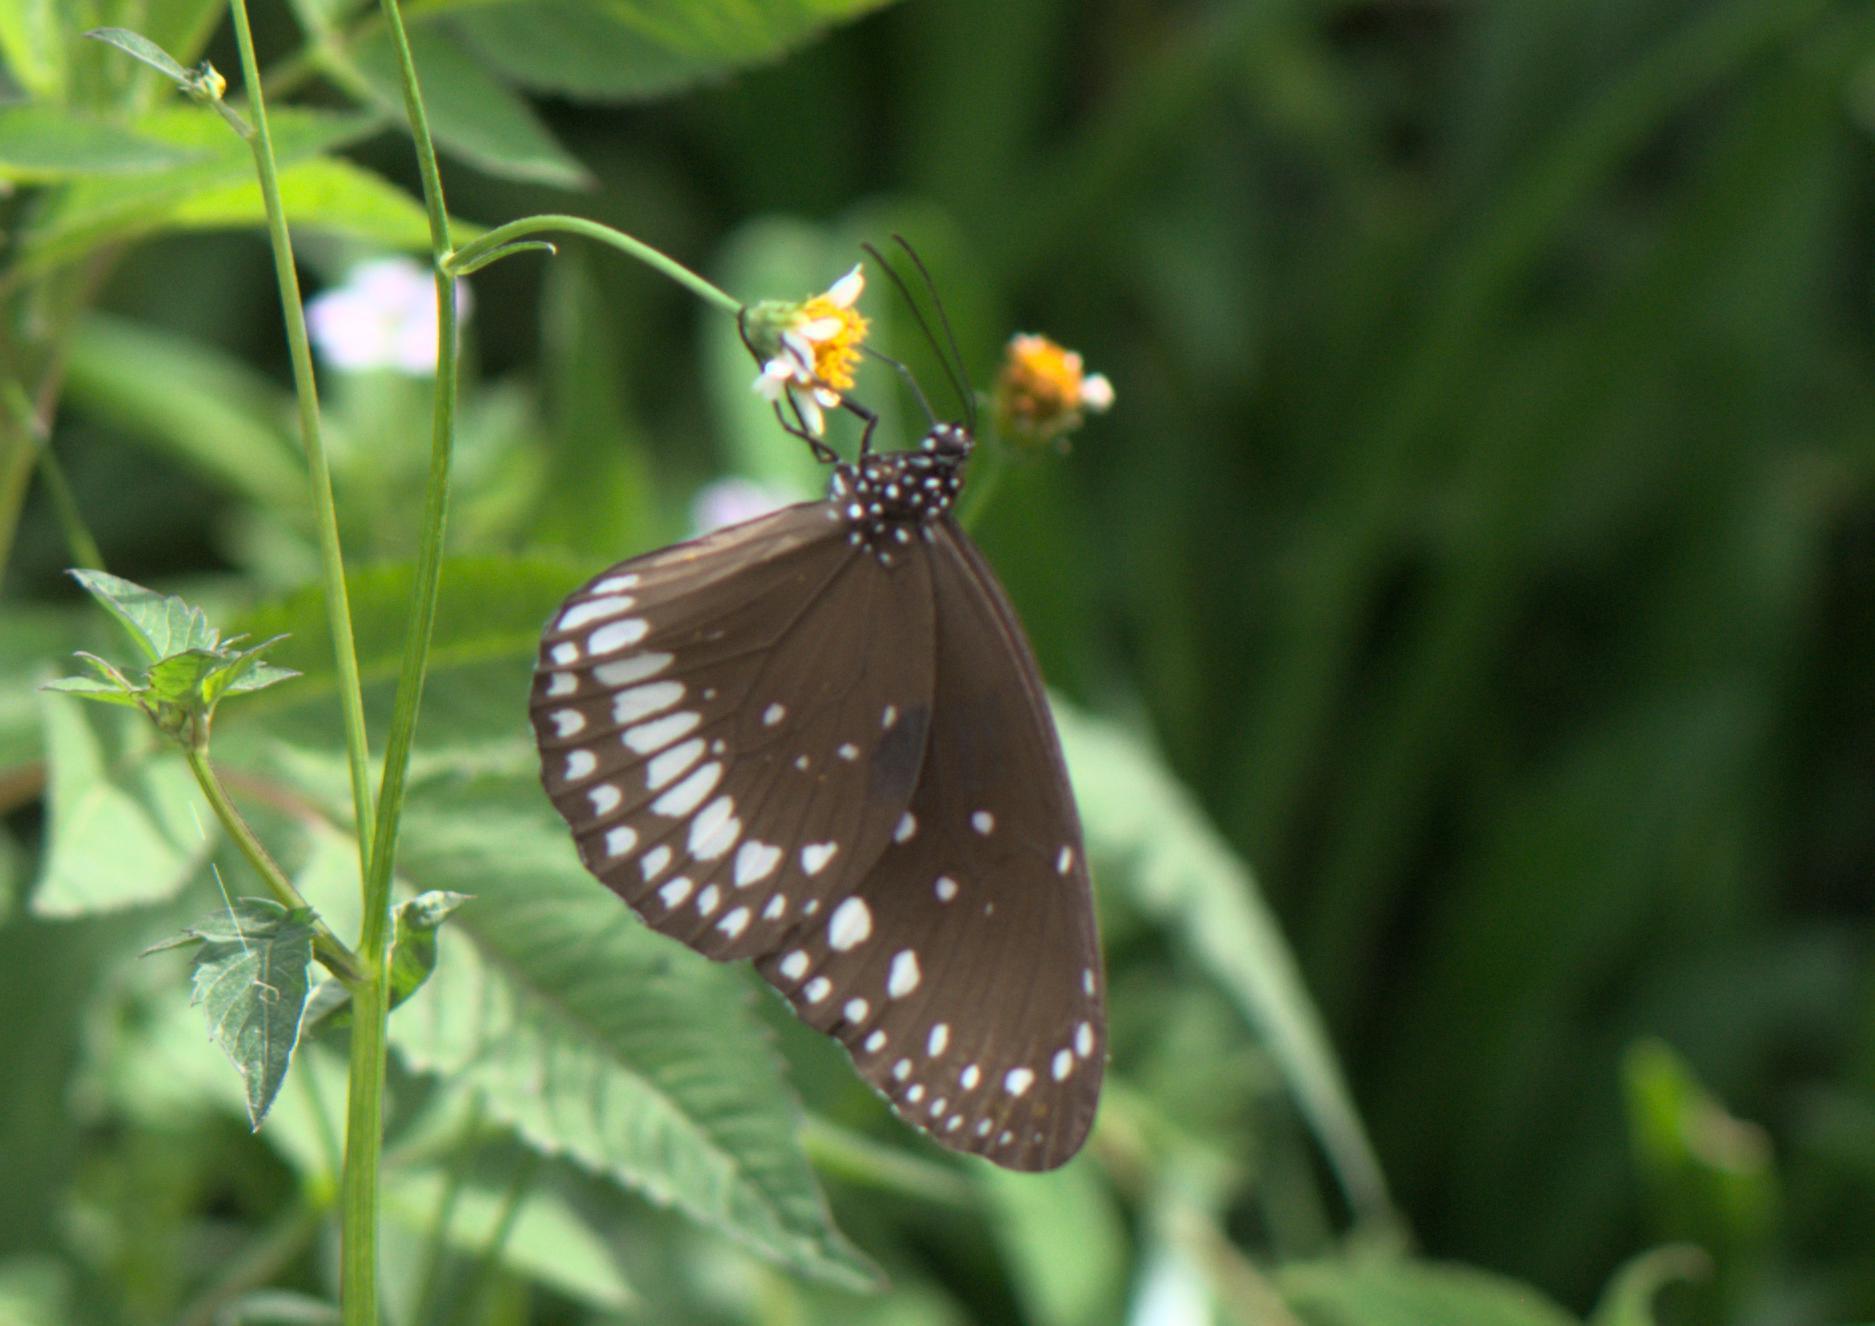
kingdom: Animalia
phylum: Arthropoda
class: Insecta
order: Lepidoptera
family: Nymphalidae
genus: Euploea
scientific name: Euploea core
